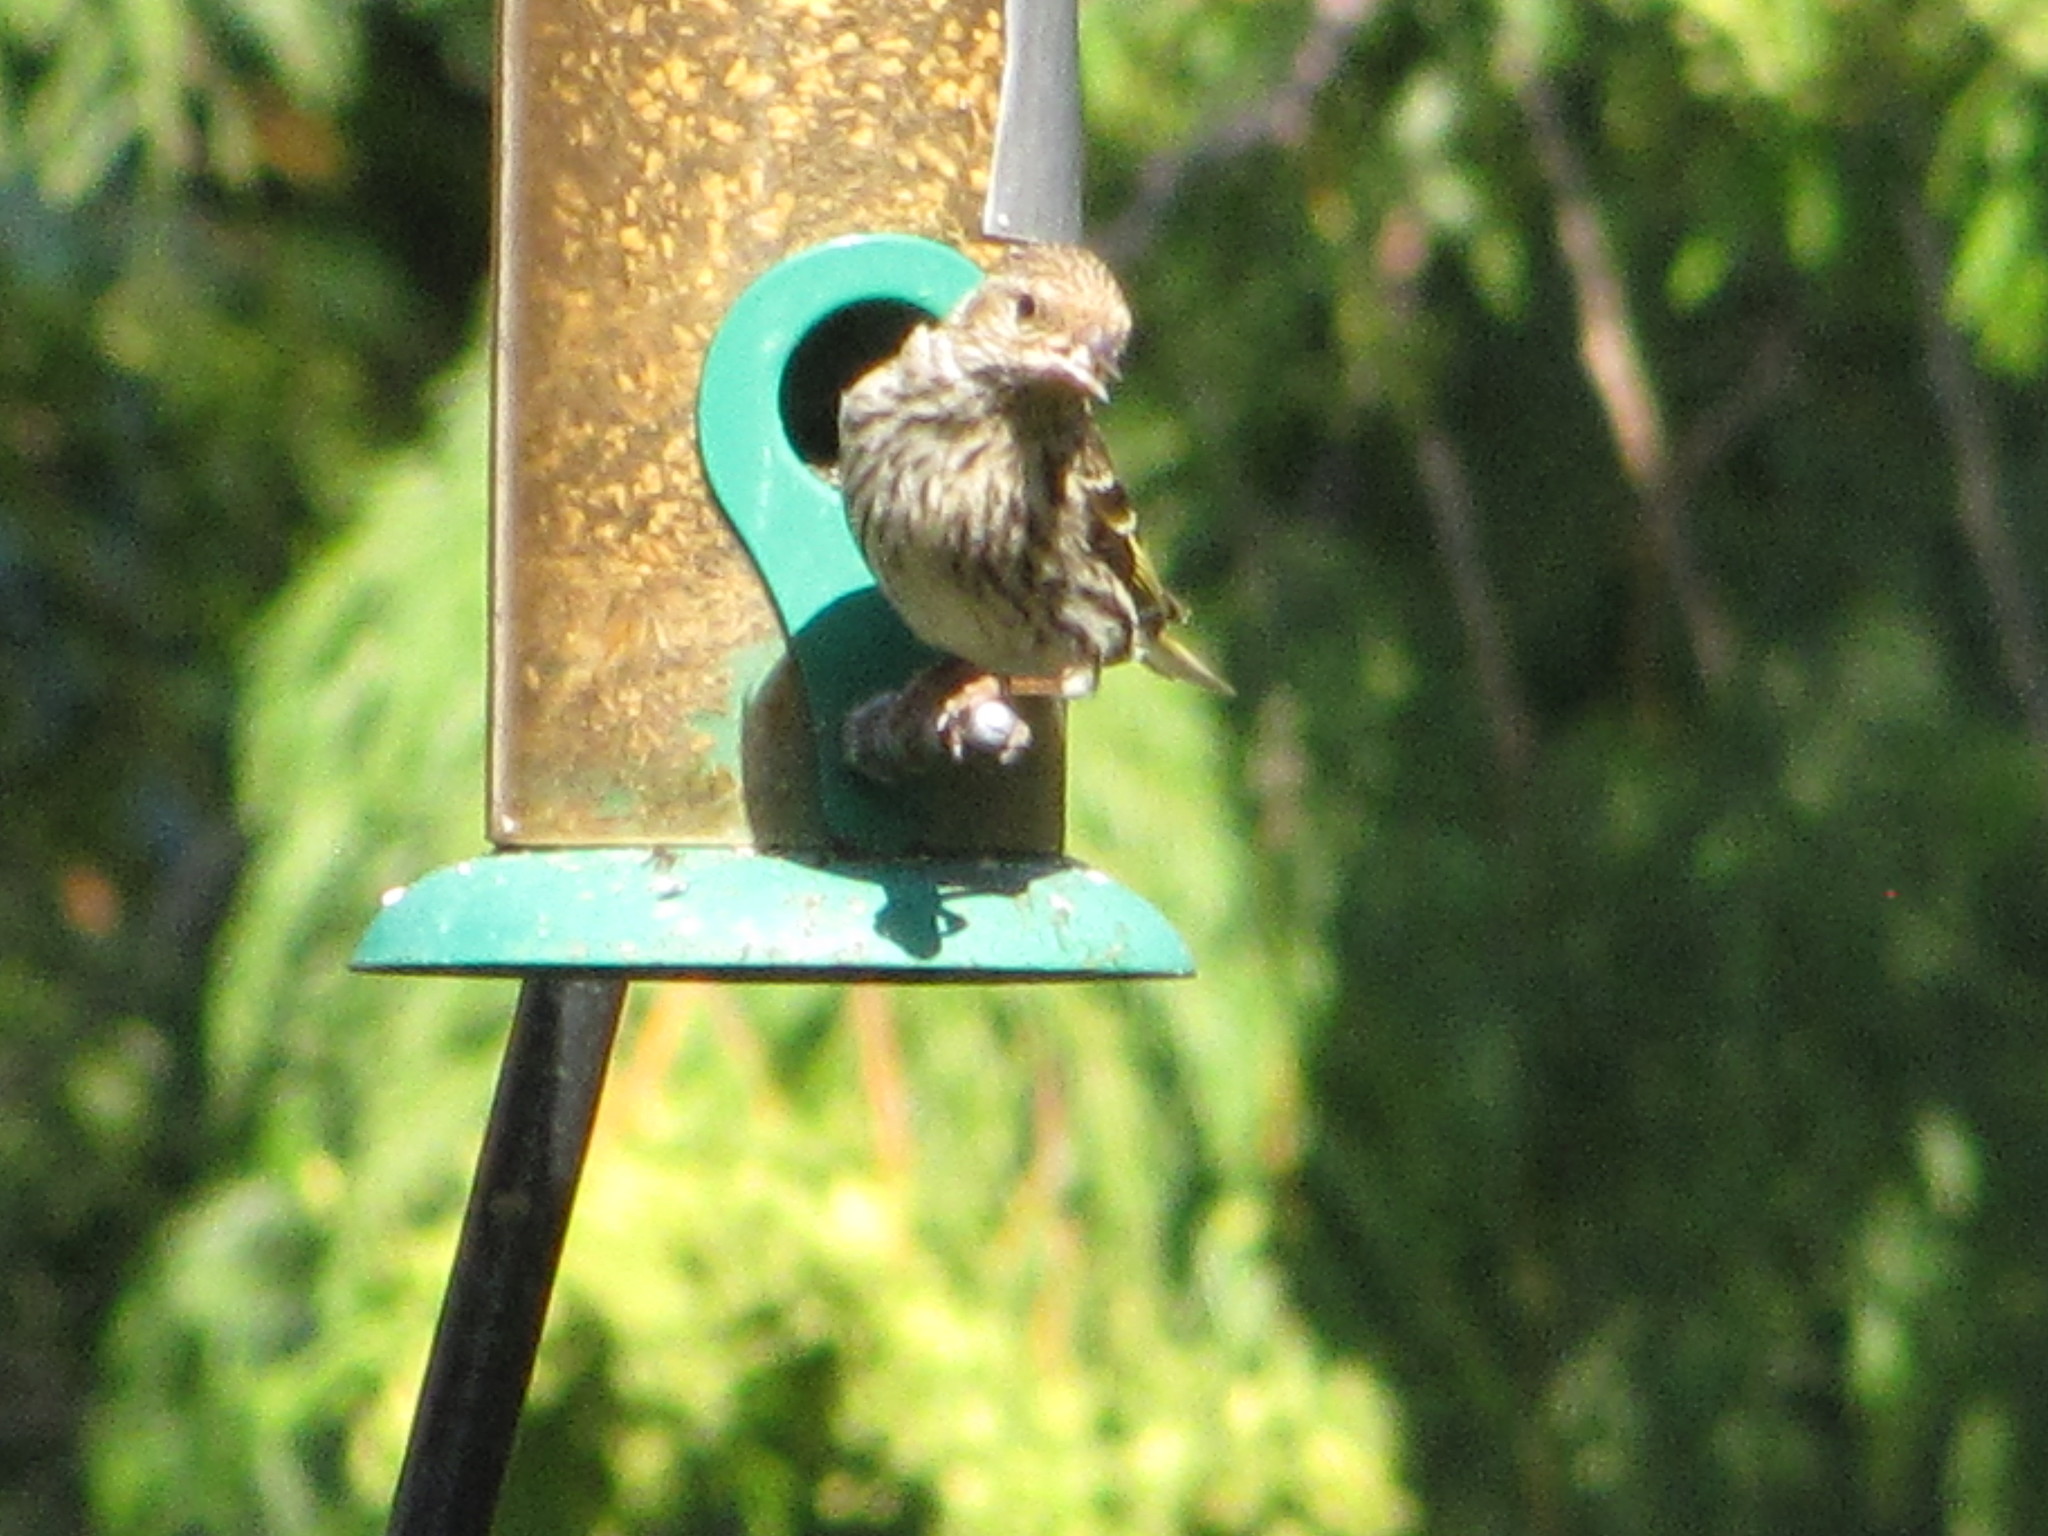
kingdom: Animalia
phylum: Chordata
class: Aves
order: Passeriformes
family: Fringillidae
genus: Spinus
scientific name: Spinus pinus
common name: Pine siskin
